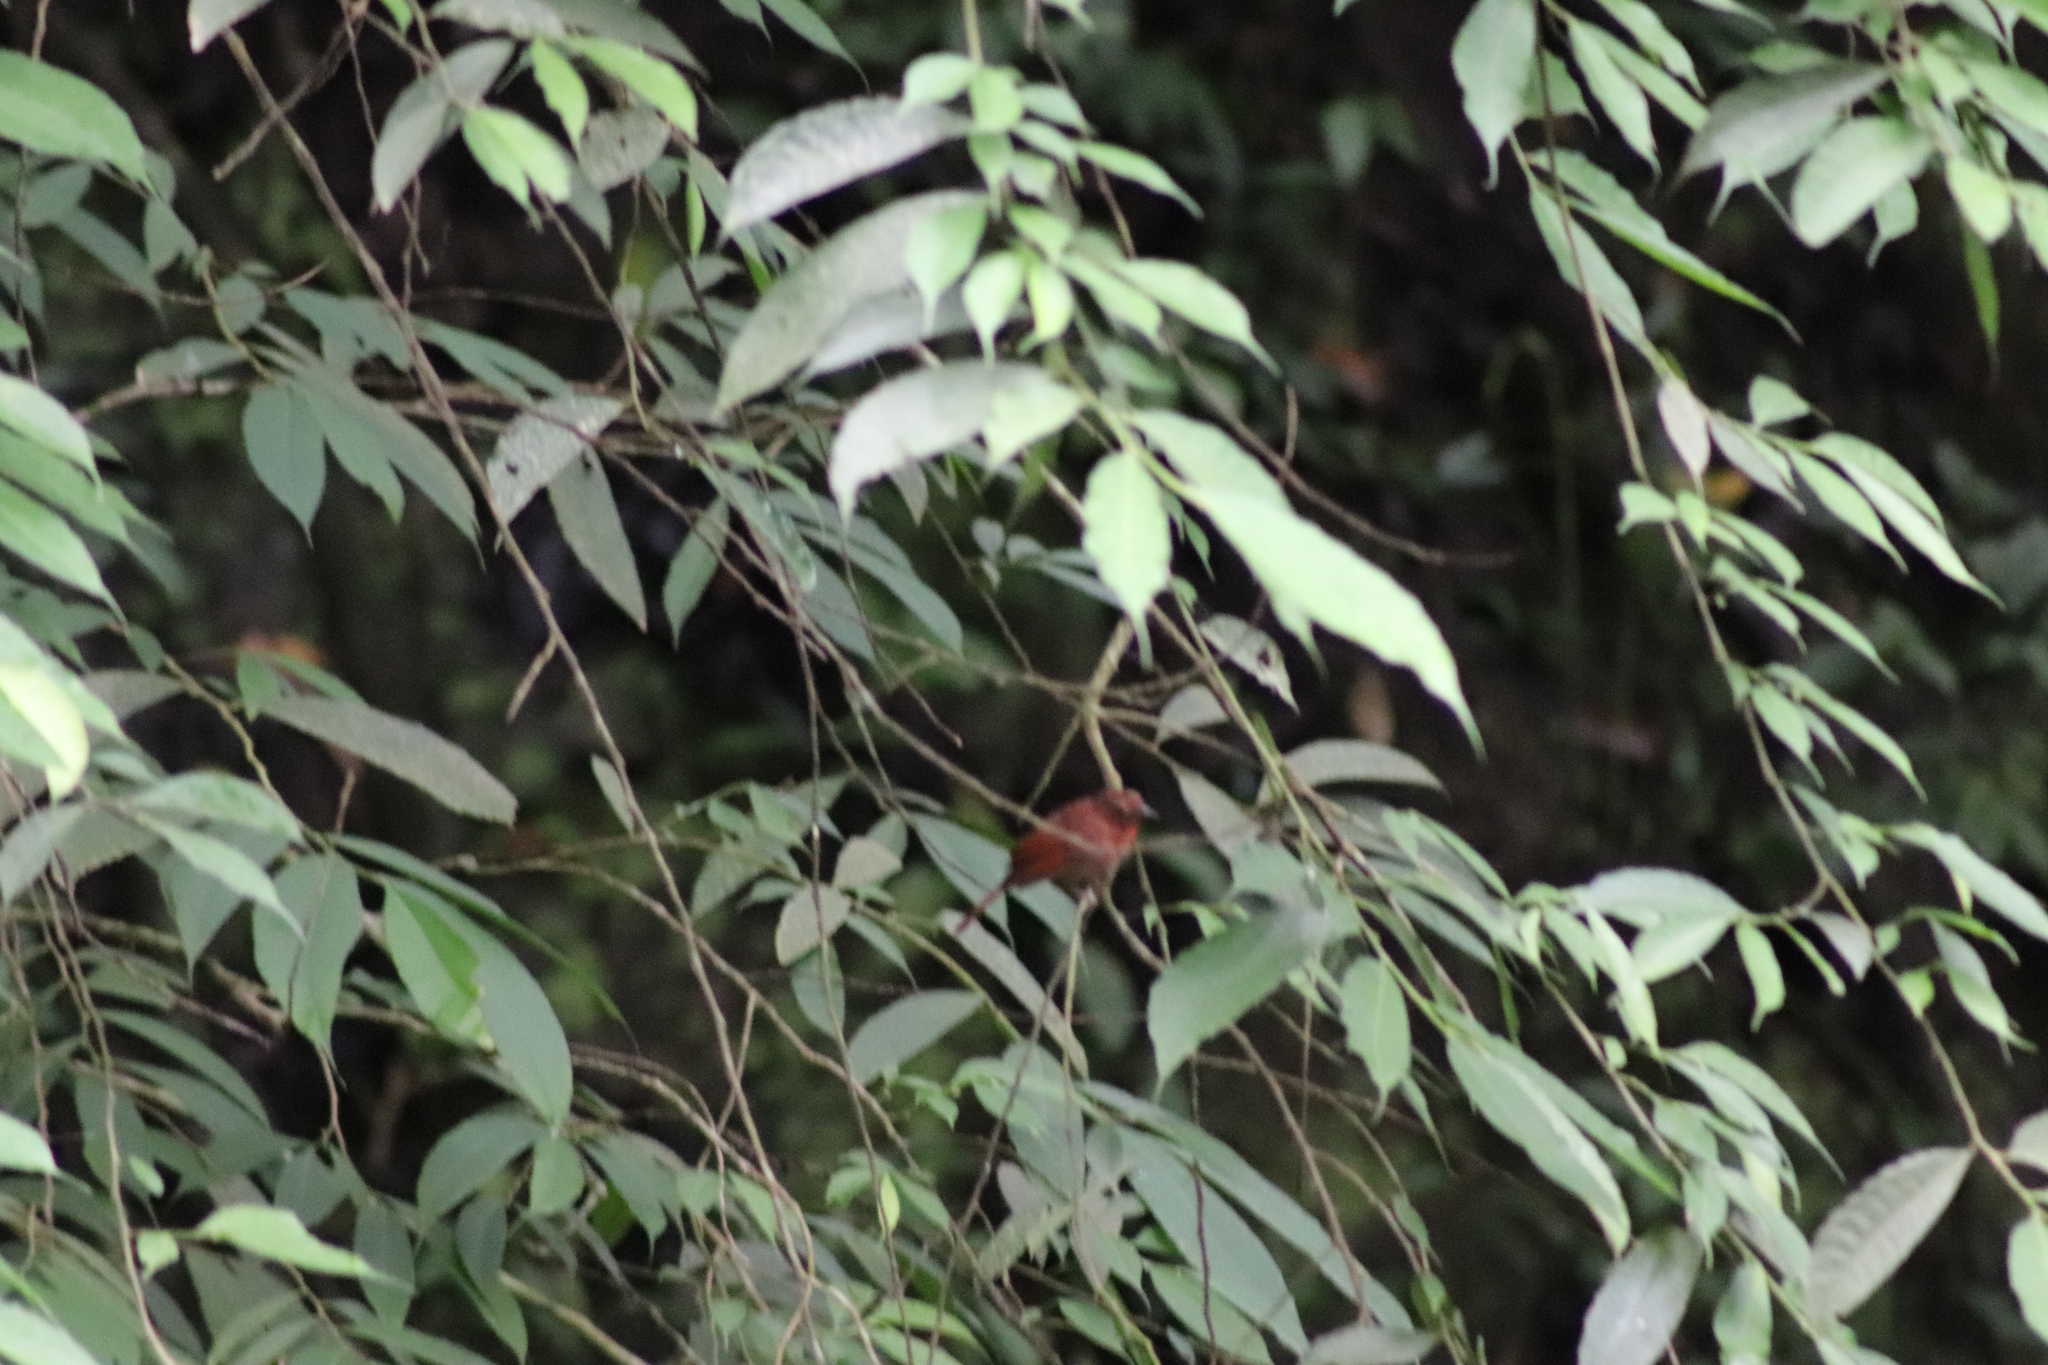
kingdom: Animalia
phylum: Chordata
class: Aves
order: Passeriformes
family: Cardinalidae
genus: Habia
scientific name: Habia rubica
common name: Red-crowned ant-tanager
